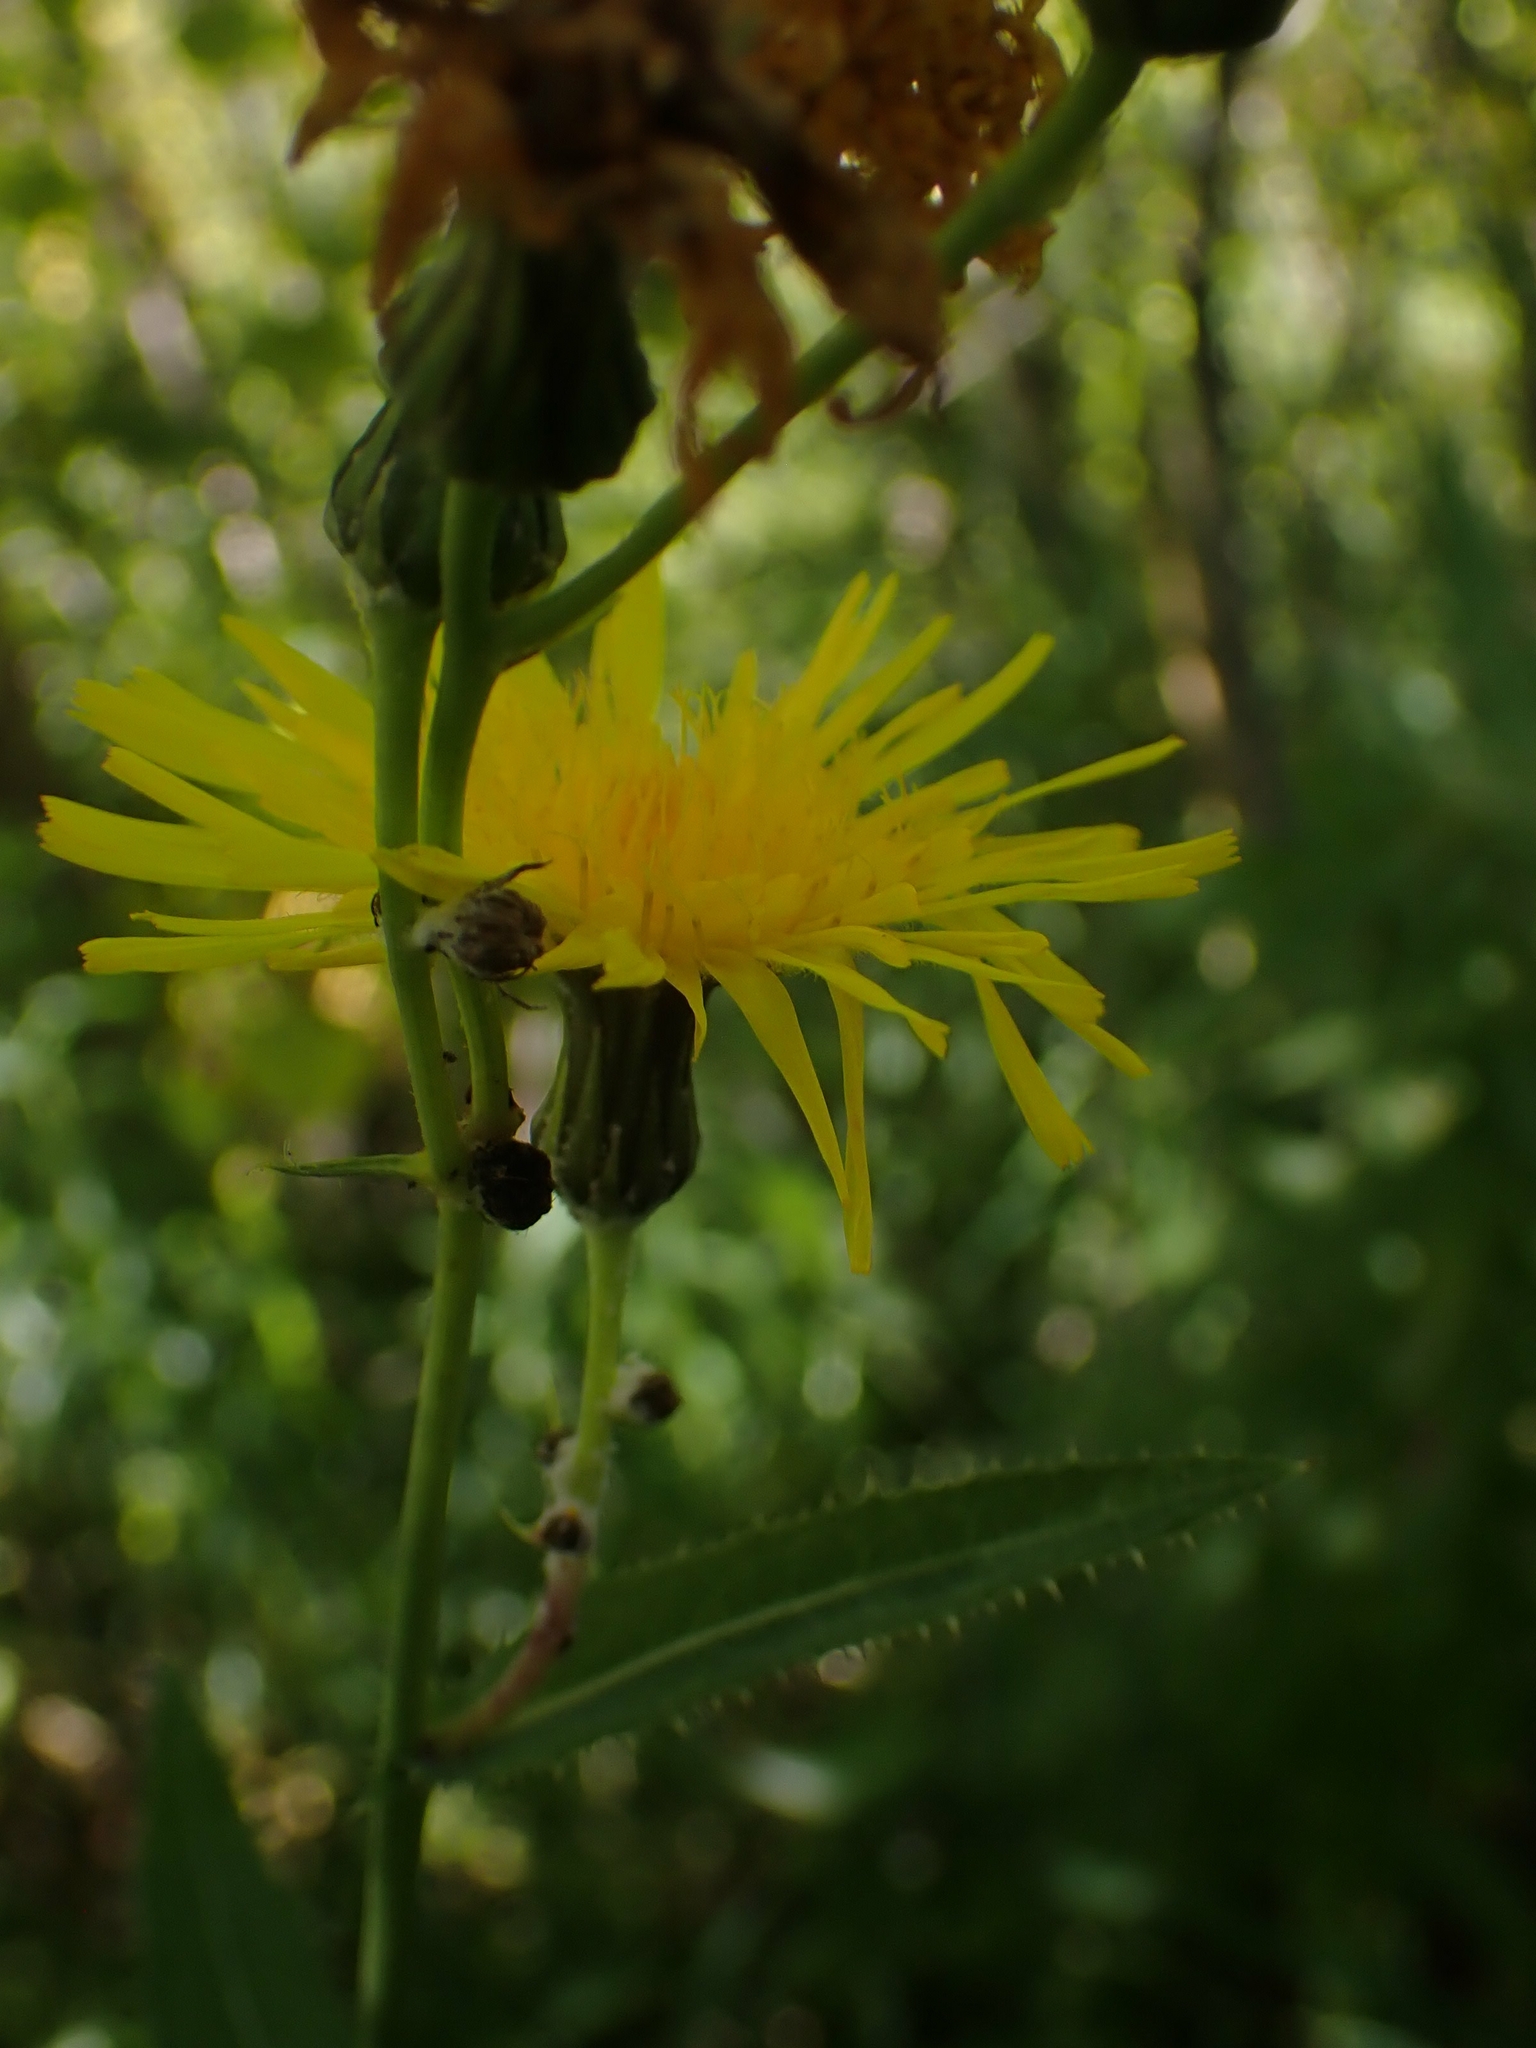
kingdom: Plantae
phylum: Tracheophyta
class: Magnoliopsida
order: Asterales
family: Asteraceae
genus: Sonchus
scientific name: Sonchus arvensis
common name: Perennial sow-thistle
